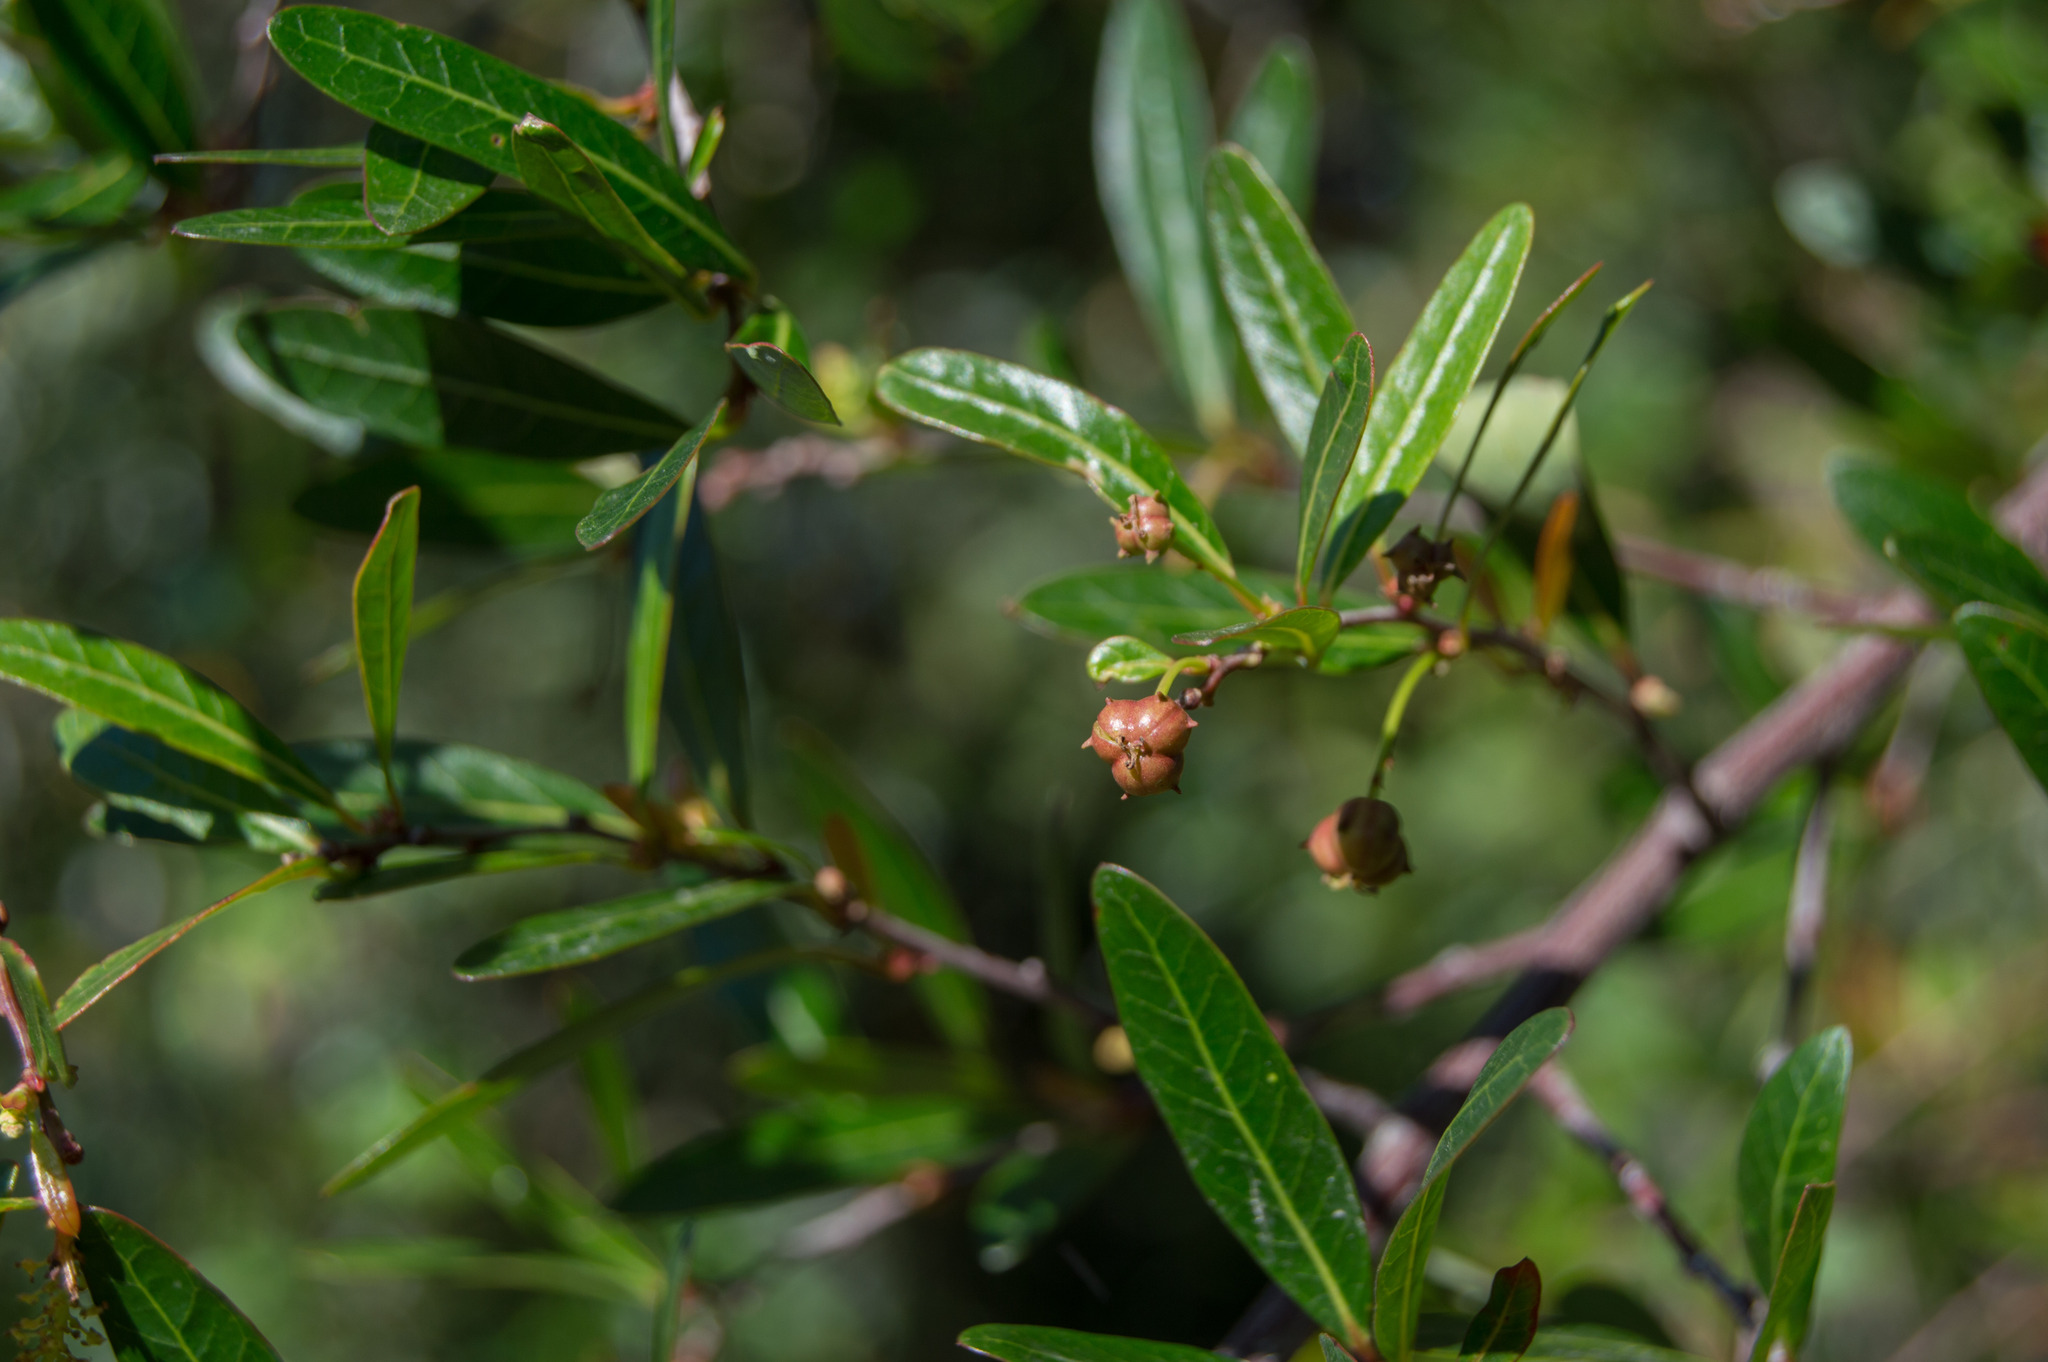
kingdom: Plantae
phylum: Tracheophyta
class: Magnoliopsida
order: Malpighiales
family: Euphorbiaceae
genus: Sebastiania
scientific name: Sebastiania schottiana
